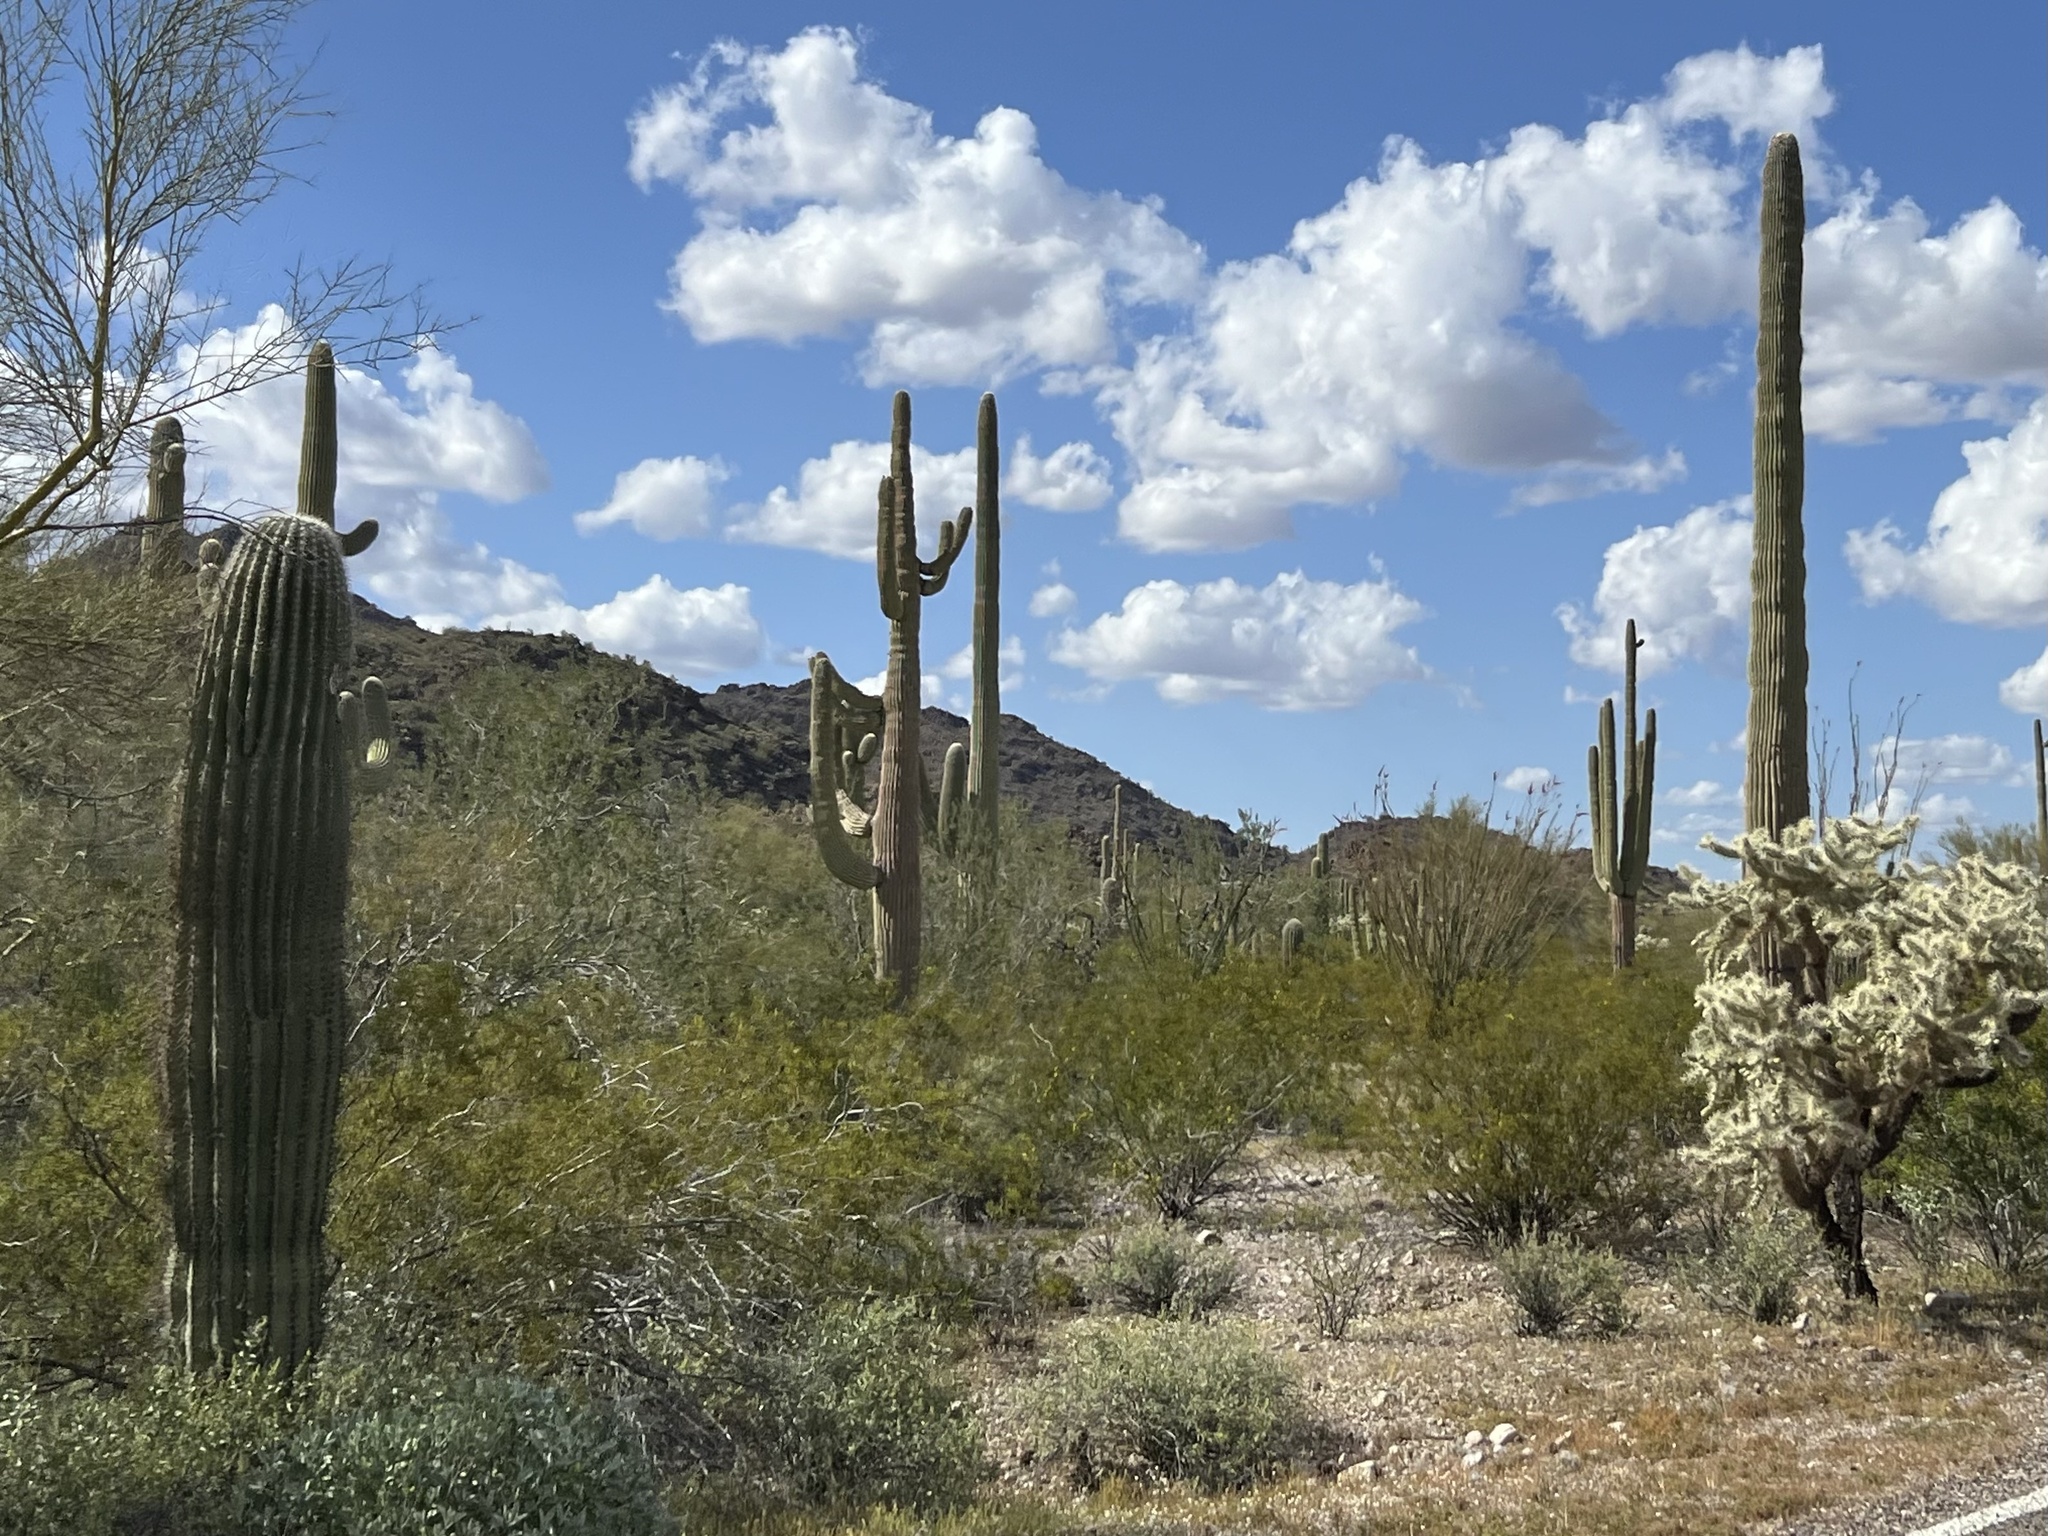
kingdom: Plantae
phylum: Tracheophyta
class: Magnoliopsida
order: Caryophyllales
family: Cactaceae
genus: Carnegiea
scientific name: Carnegiea gigantea
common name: Saguaro
